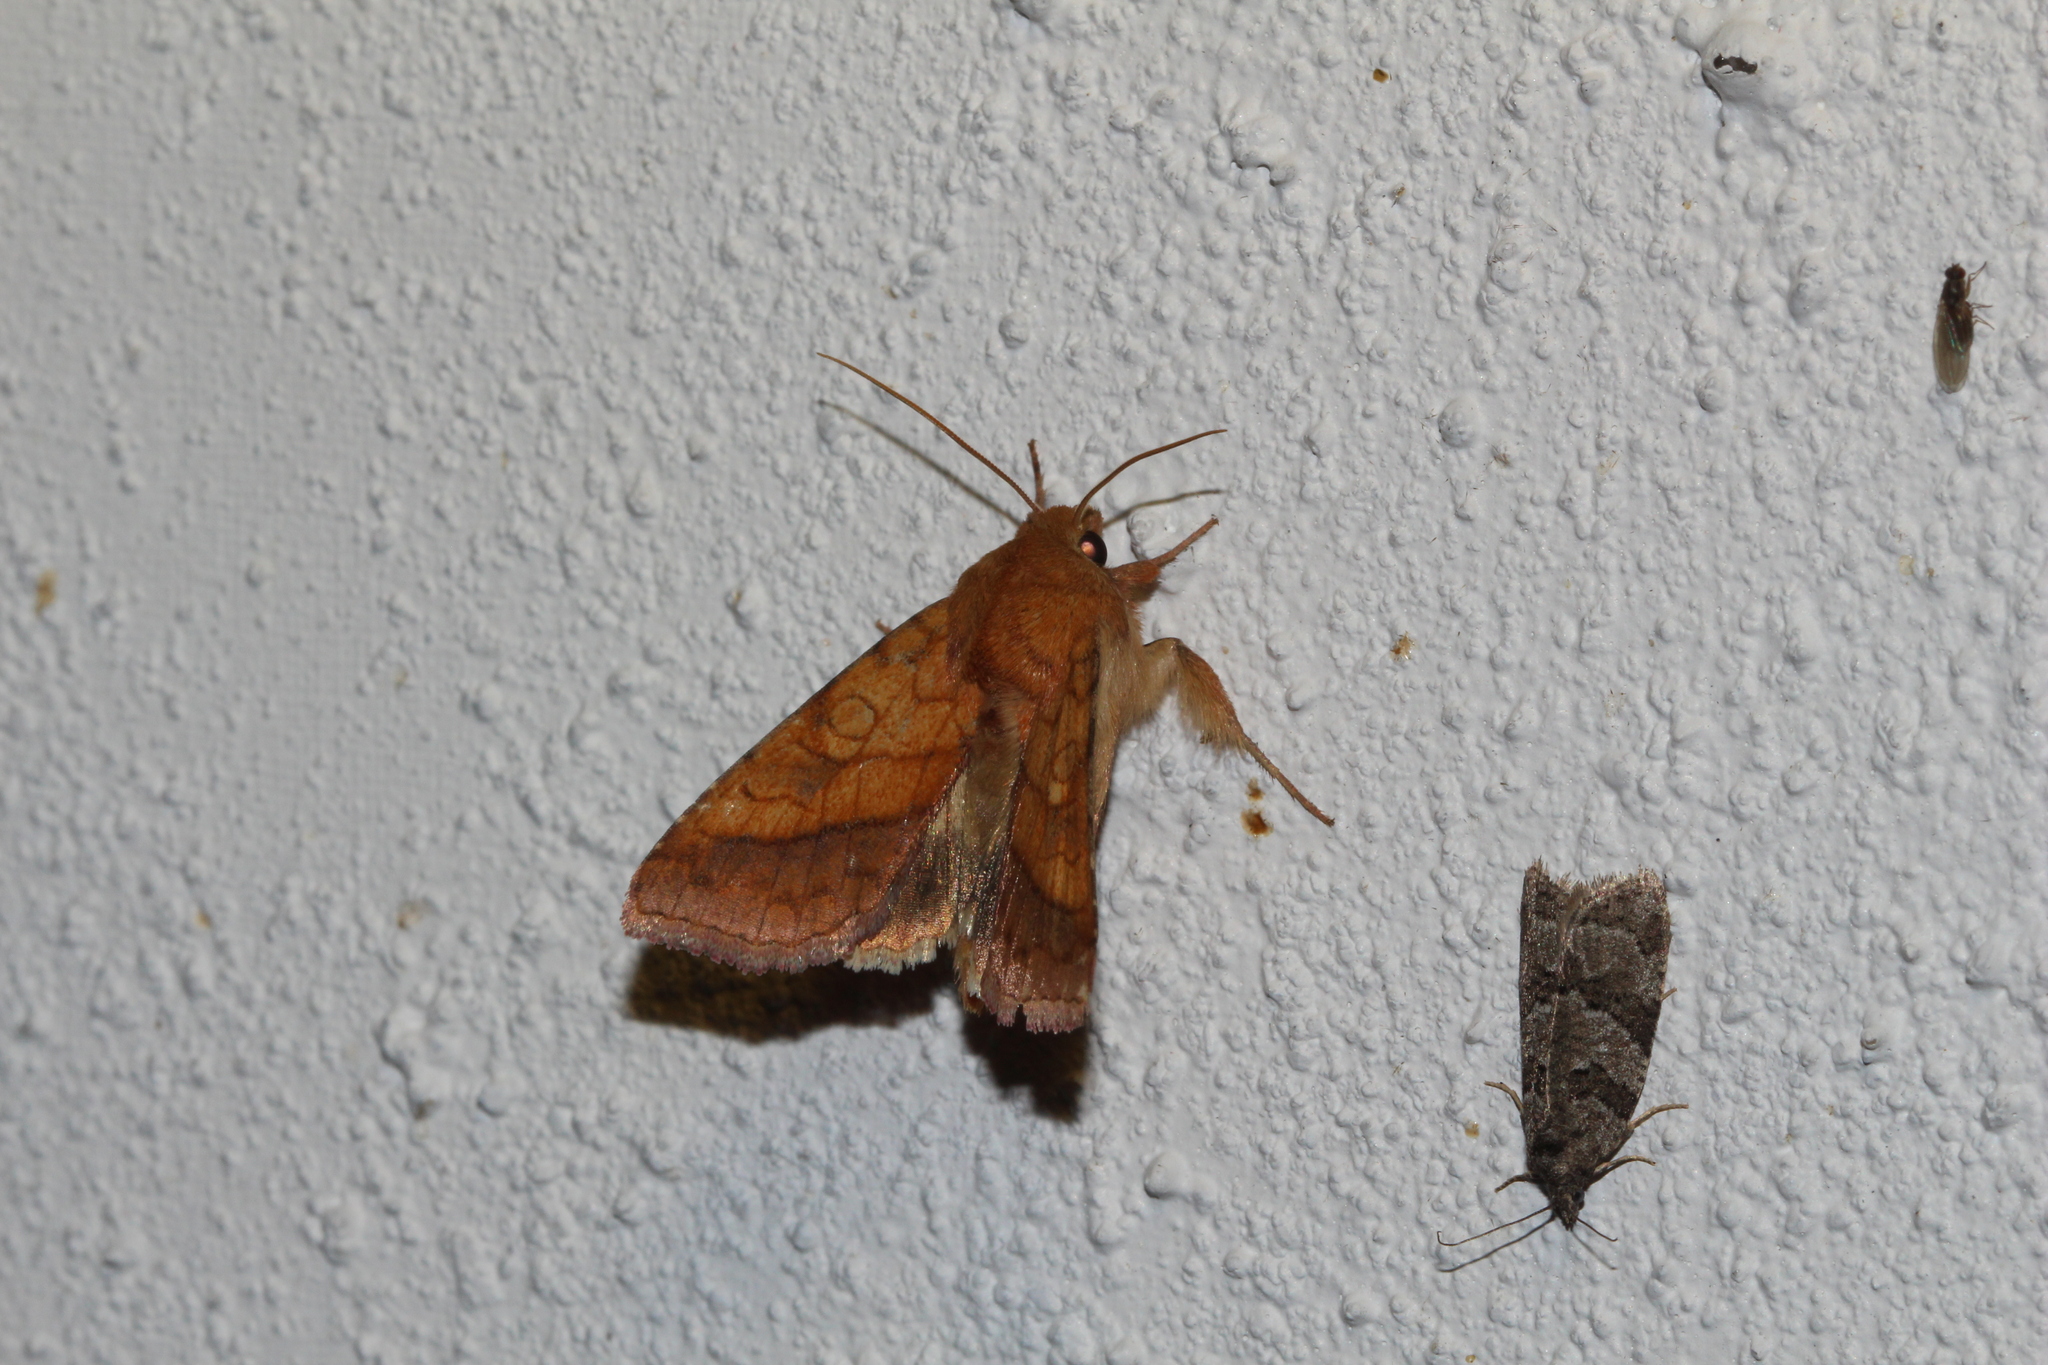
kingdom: Animalia
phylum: Arthropoda
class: Insecta
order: Lepidoptera
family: Noctuidae
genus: Pyrrhia
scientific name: Pyrrhia umbra
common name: Bordered sallow
